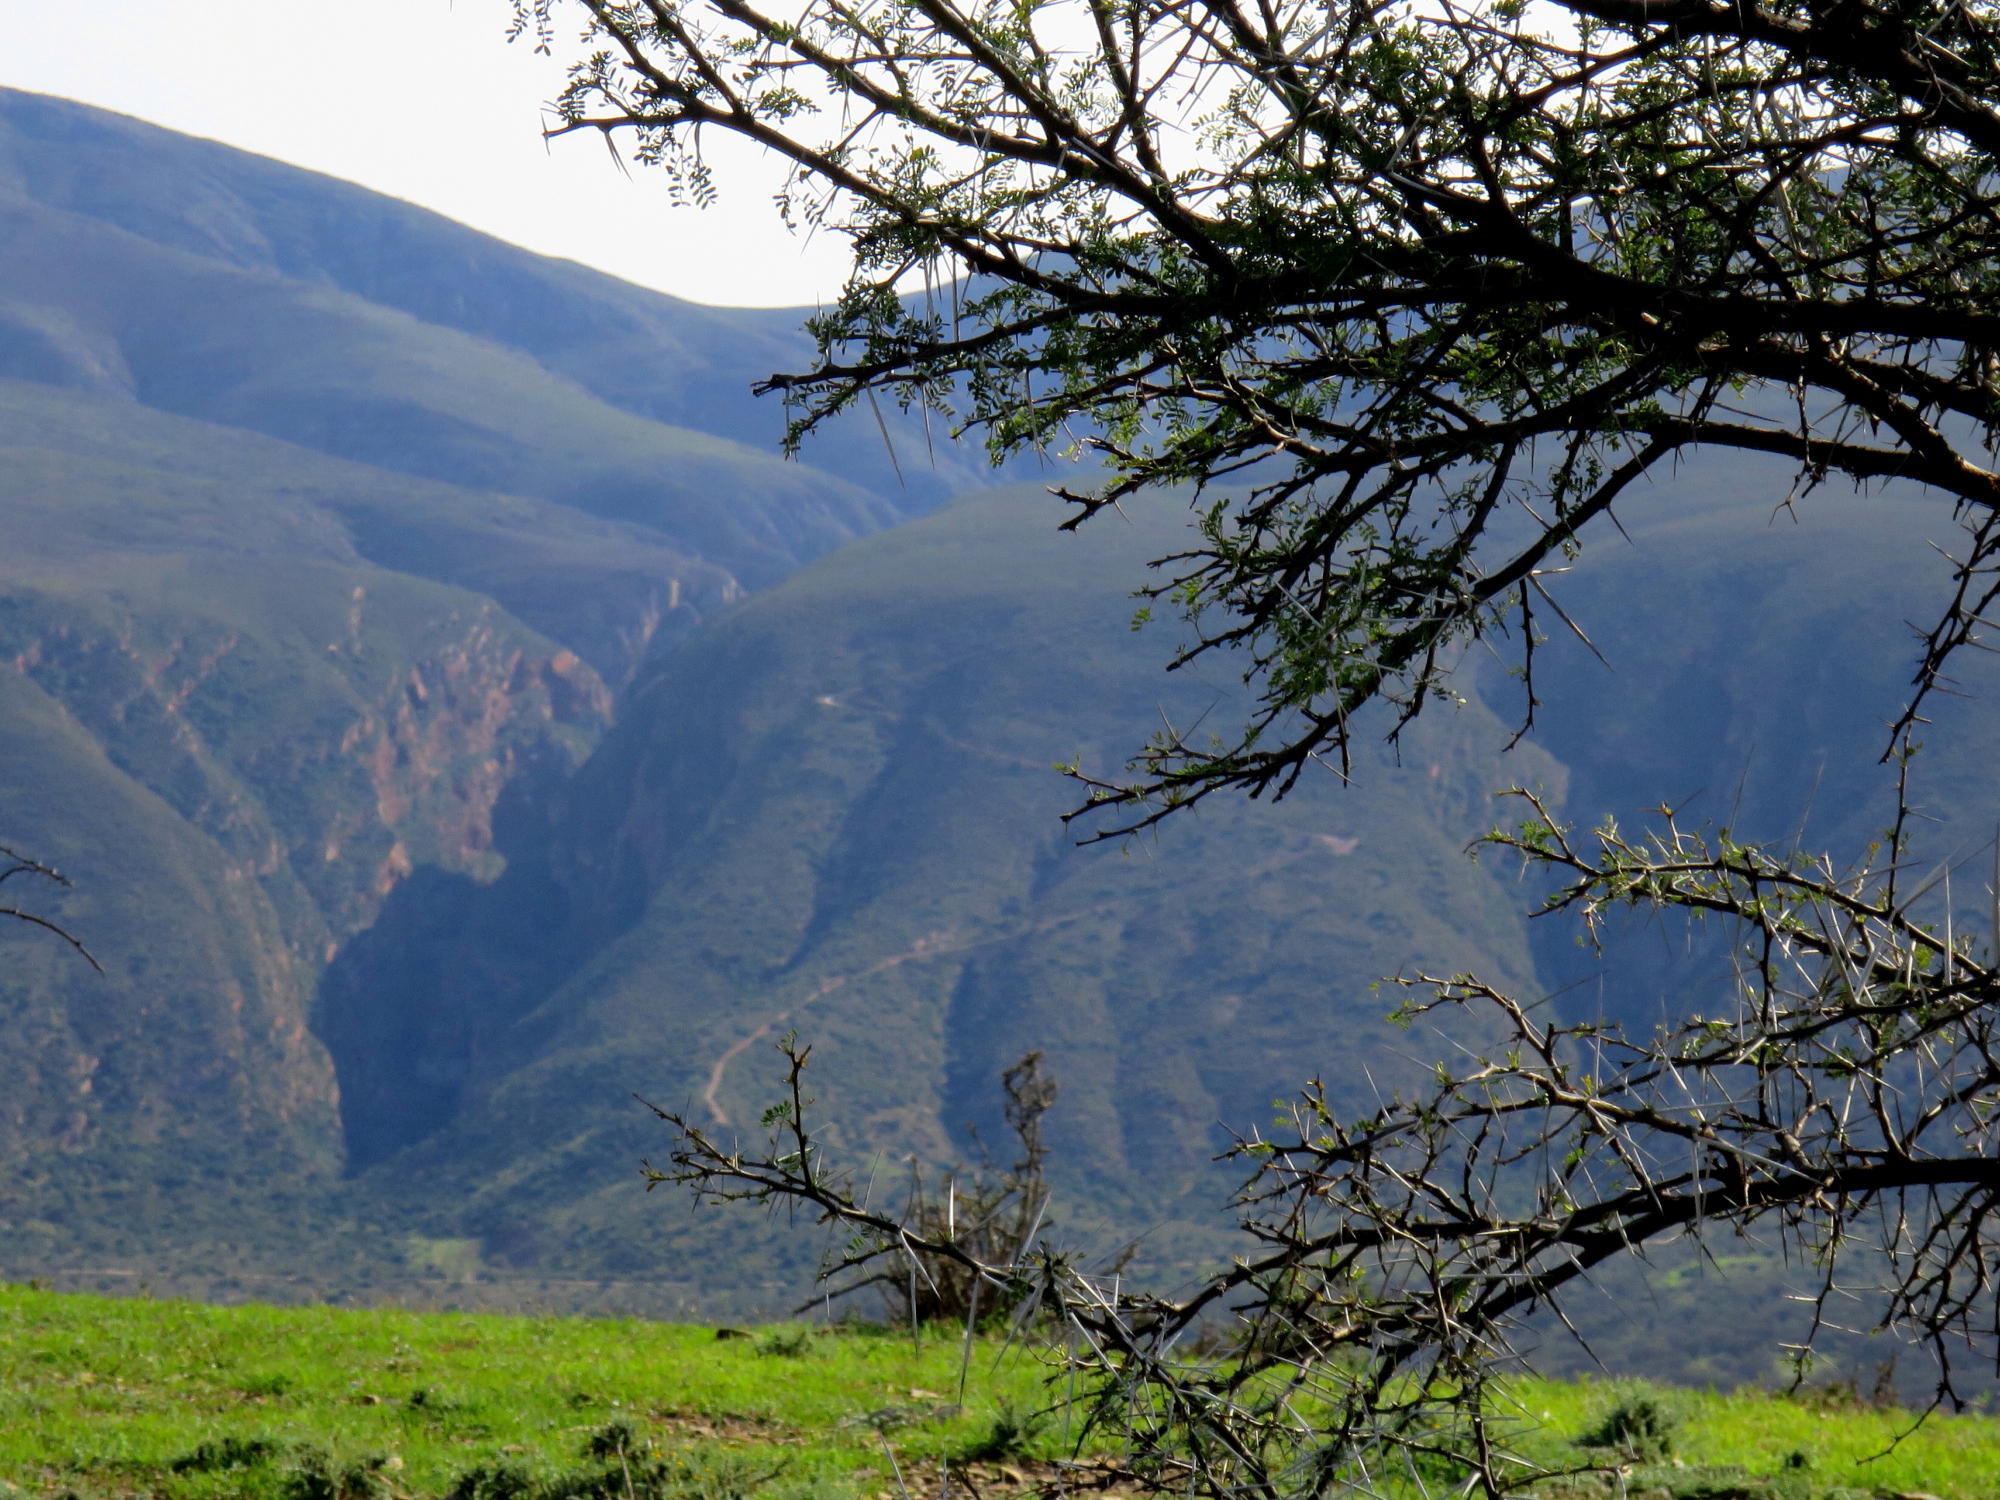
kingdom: Plantae
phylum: Tracheophyta
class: Magnoliopsida
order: Fabales
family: Fabaceae
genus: Vachellia
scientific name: Vachellia karroo
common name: Sweet thorn
